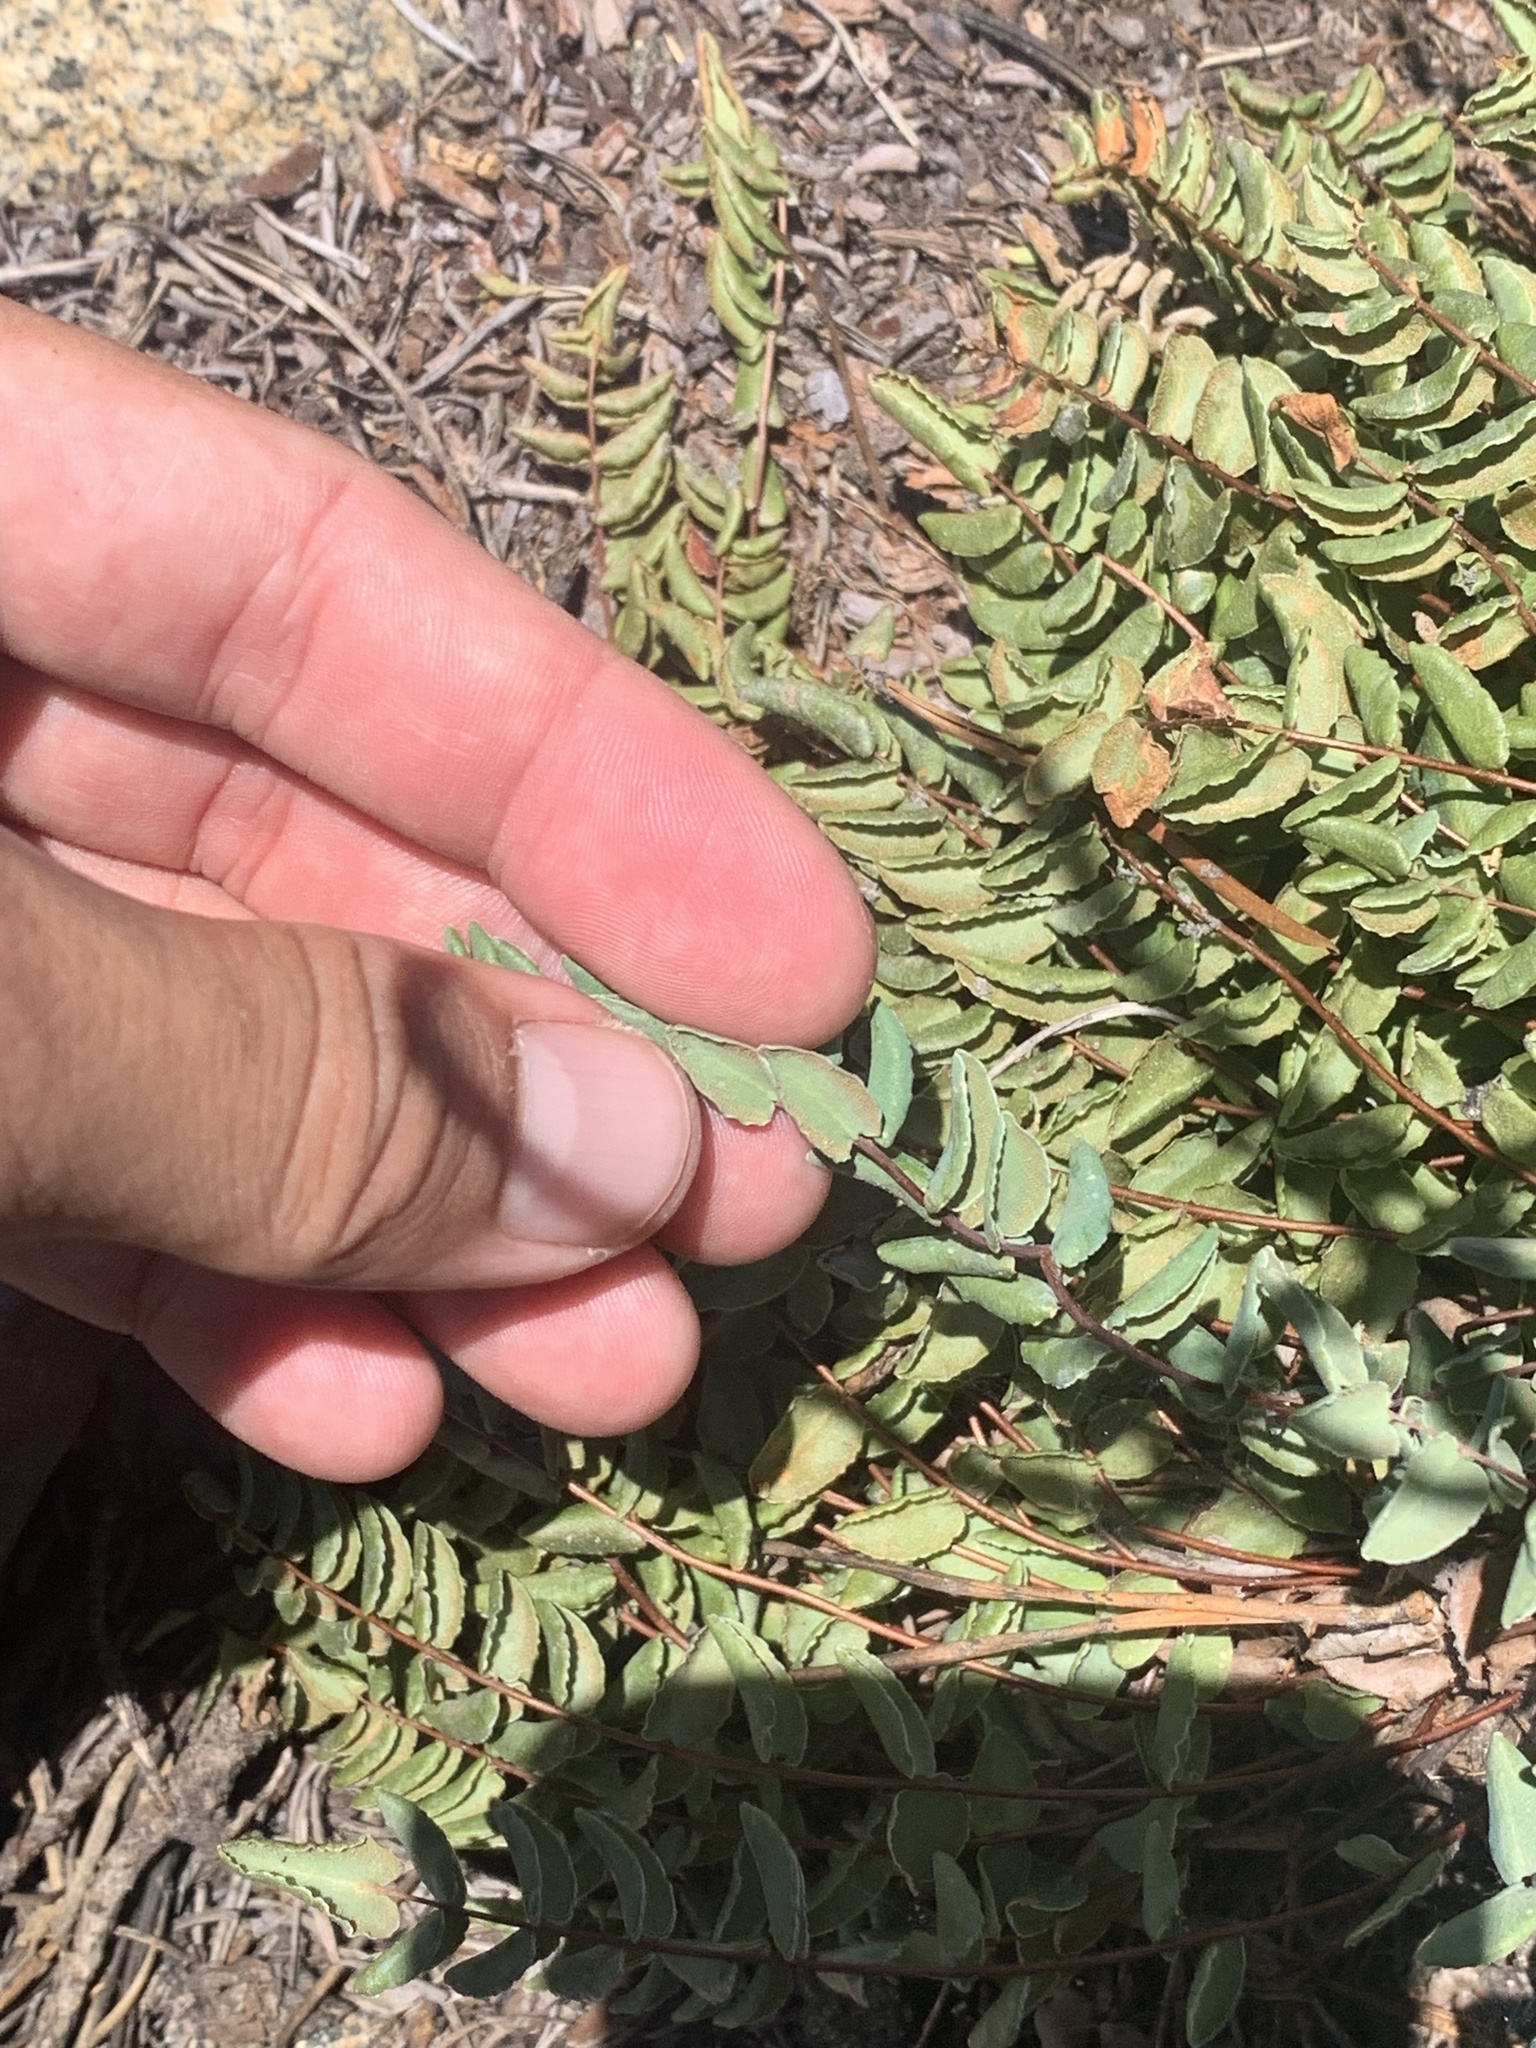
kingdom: Plantae
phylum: Tracheophyta
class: Polypodiopsida
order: Polypodiales
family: Pteridaceae
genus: Pellaea
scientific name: Pellaea bridgesii
